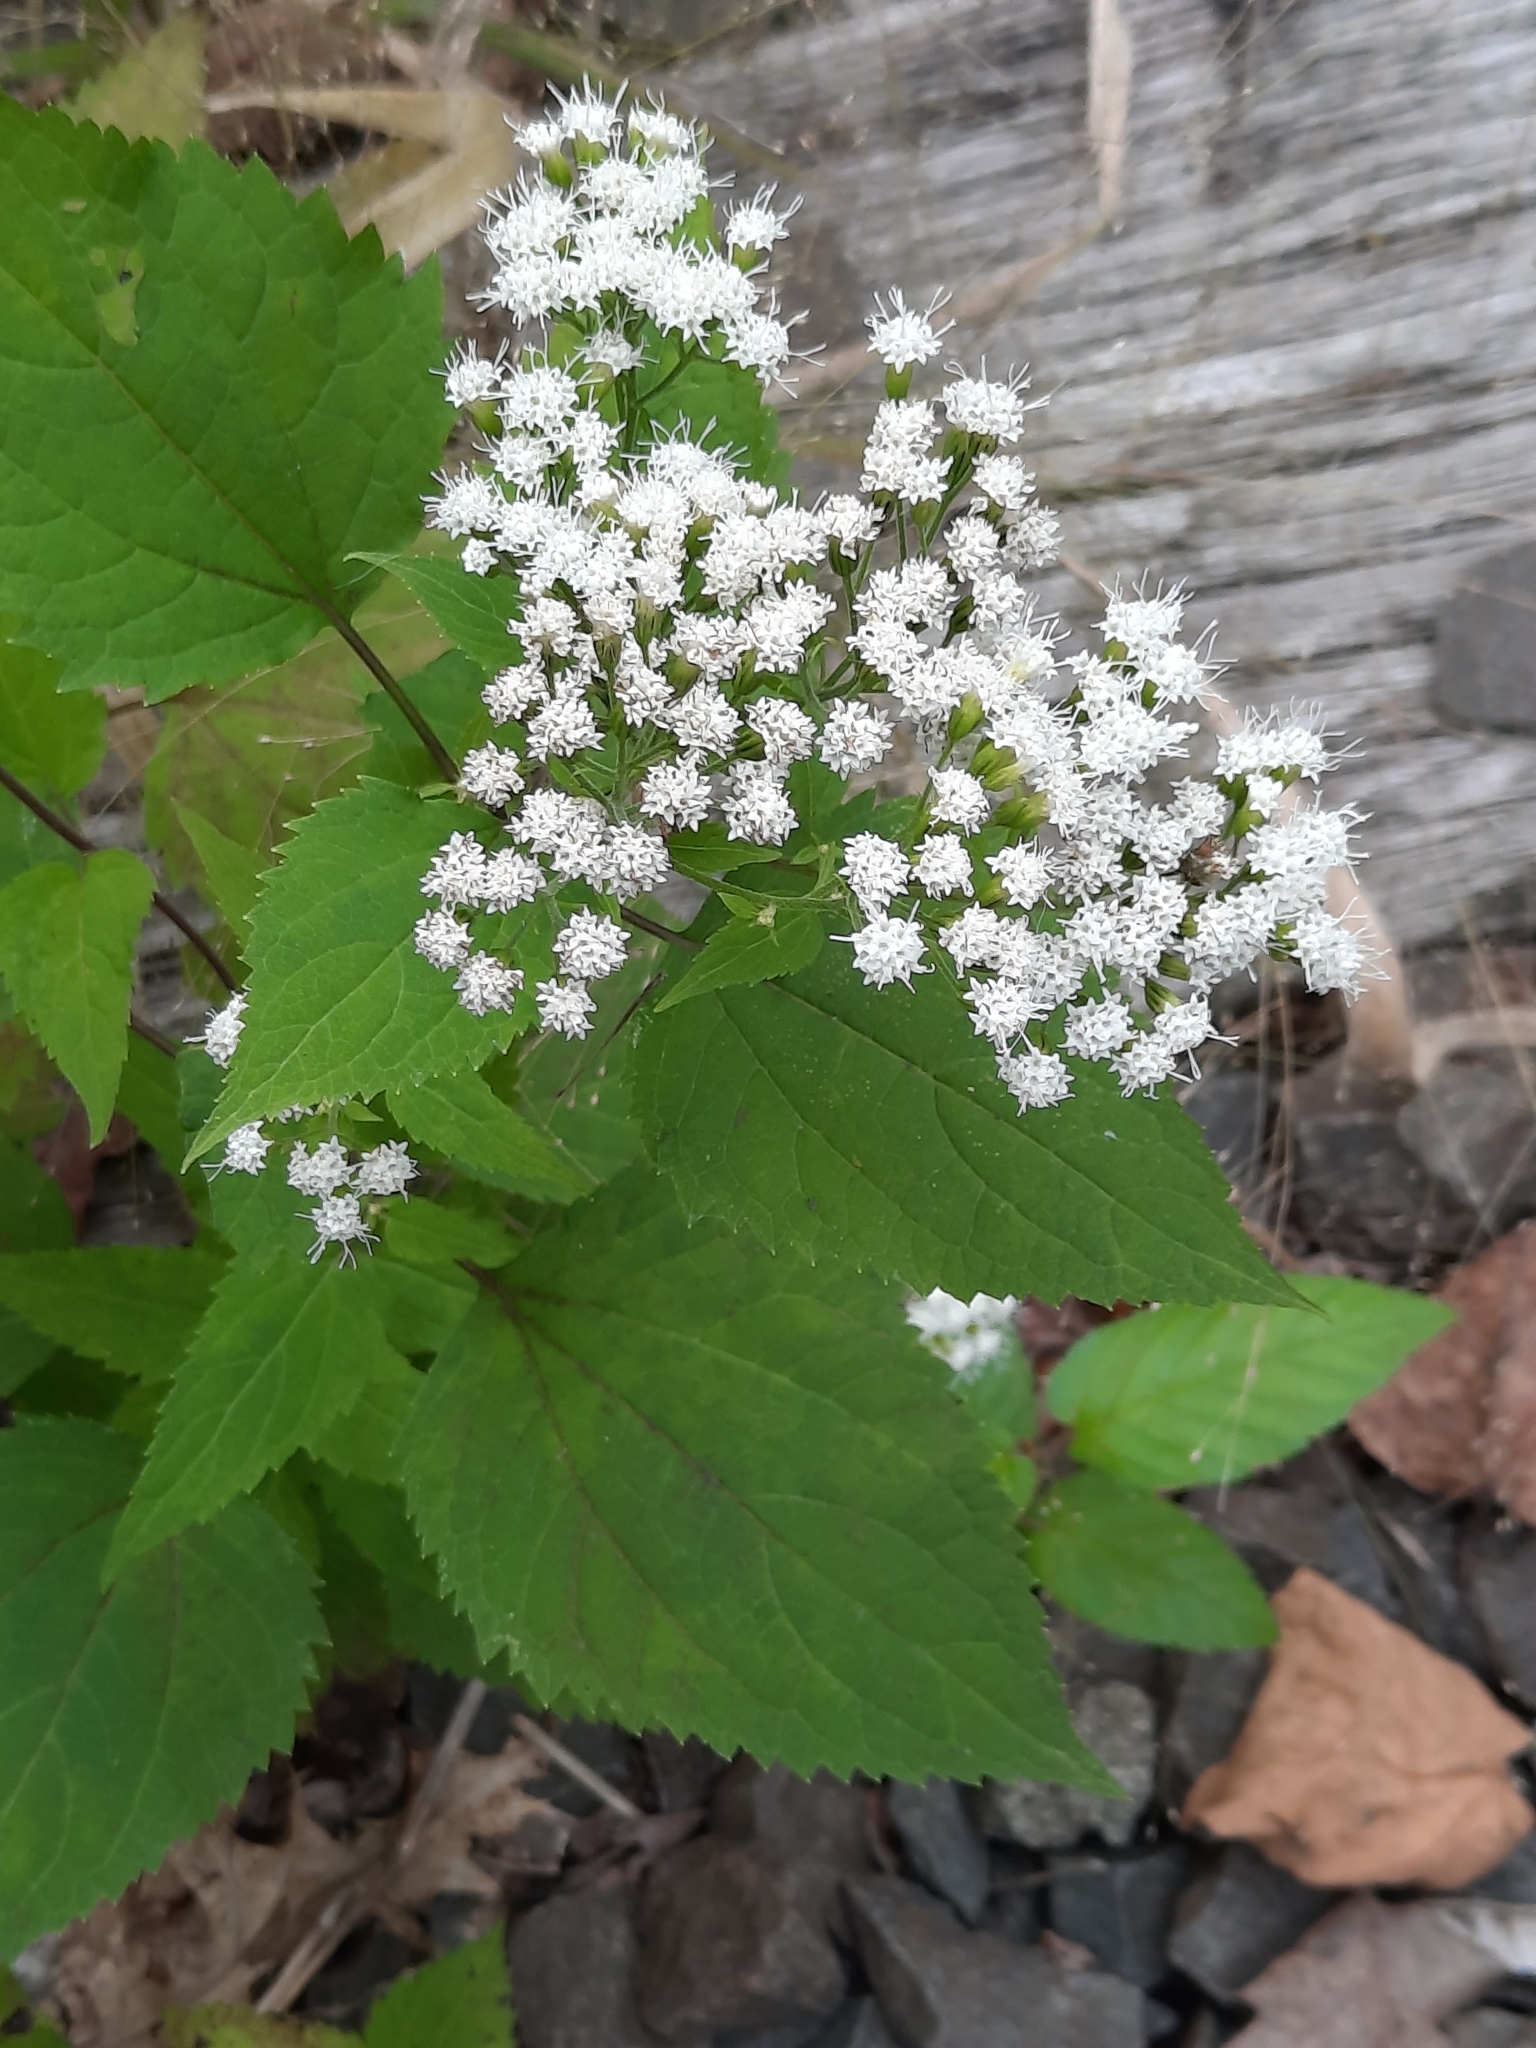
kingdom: Plantae
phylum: Tracheophyta
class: Magnoliopsida
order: Asterales
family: Asteraceae
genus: Ageratina
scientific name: Ageratina altissima
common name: White snakeroot
